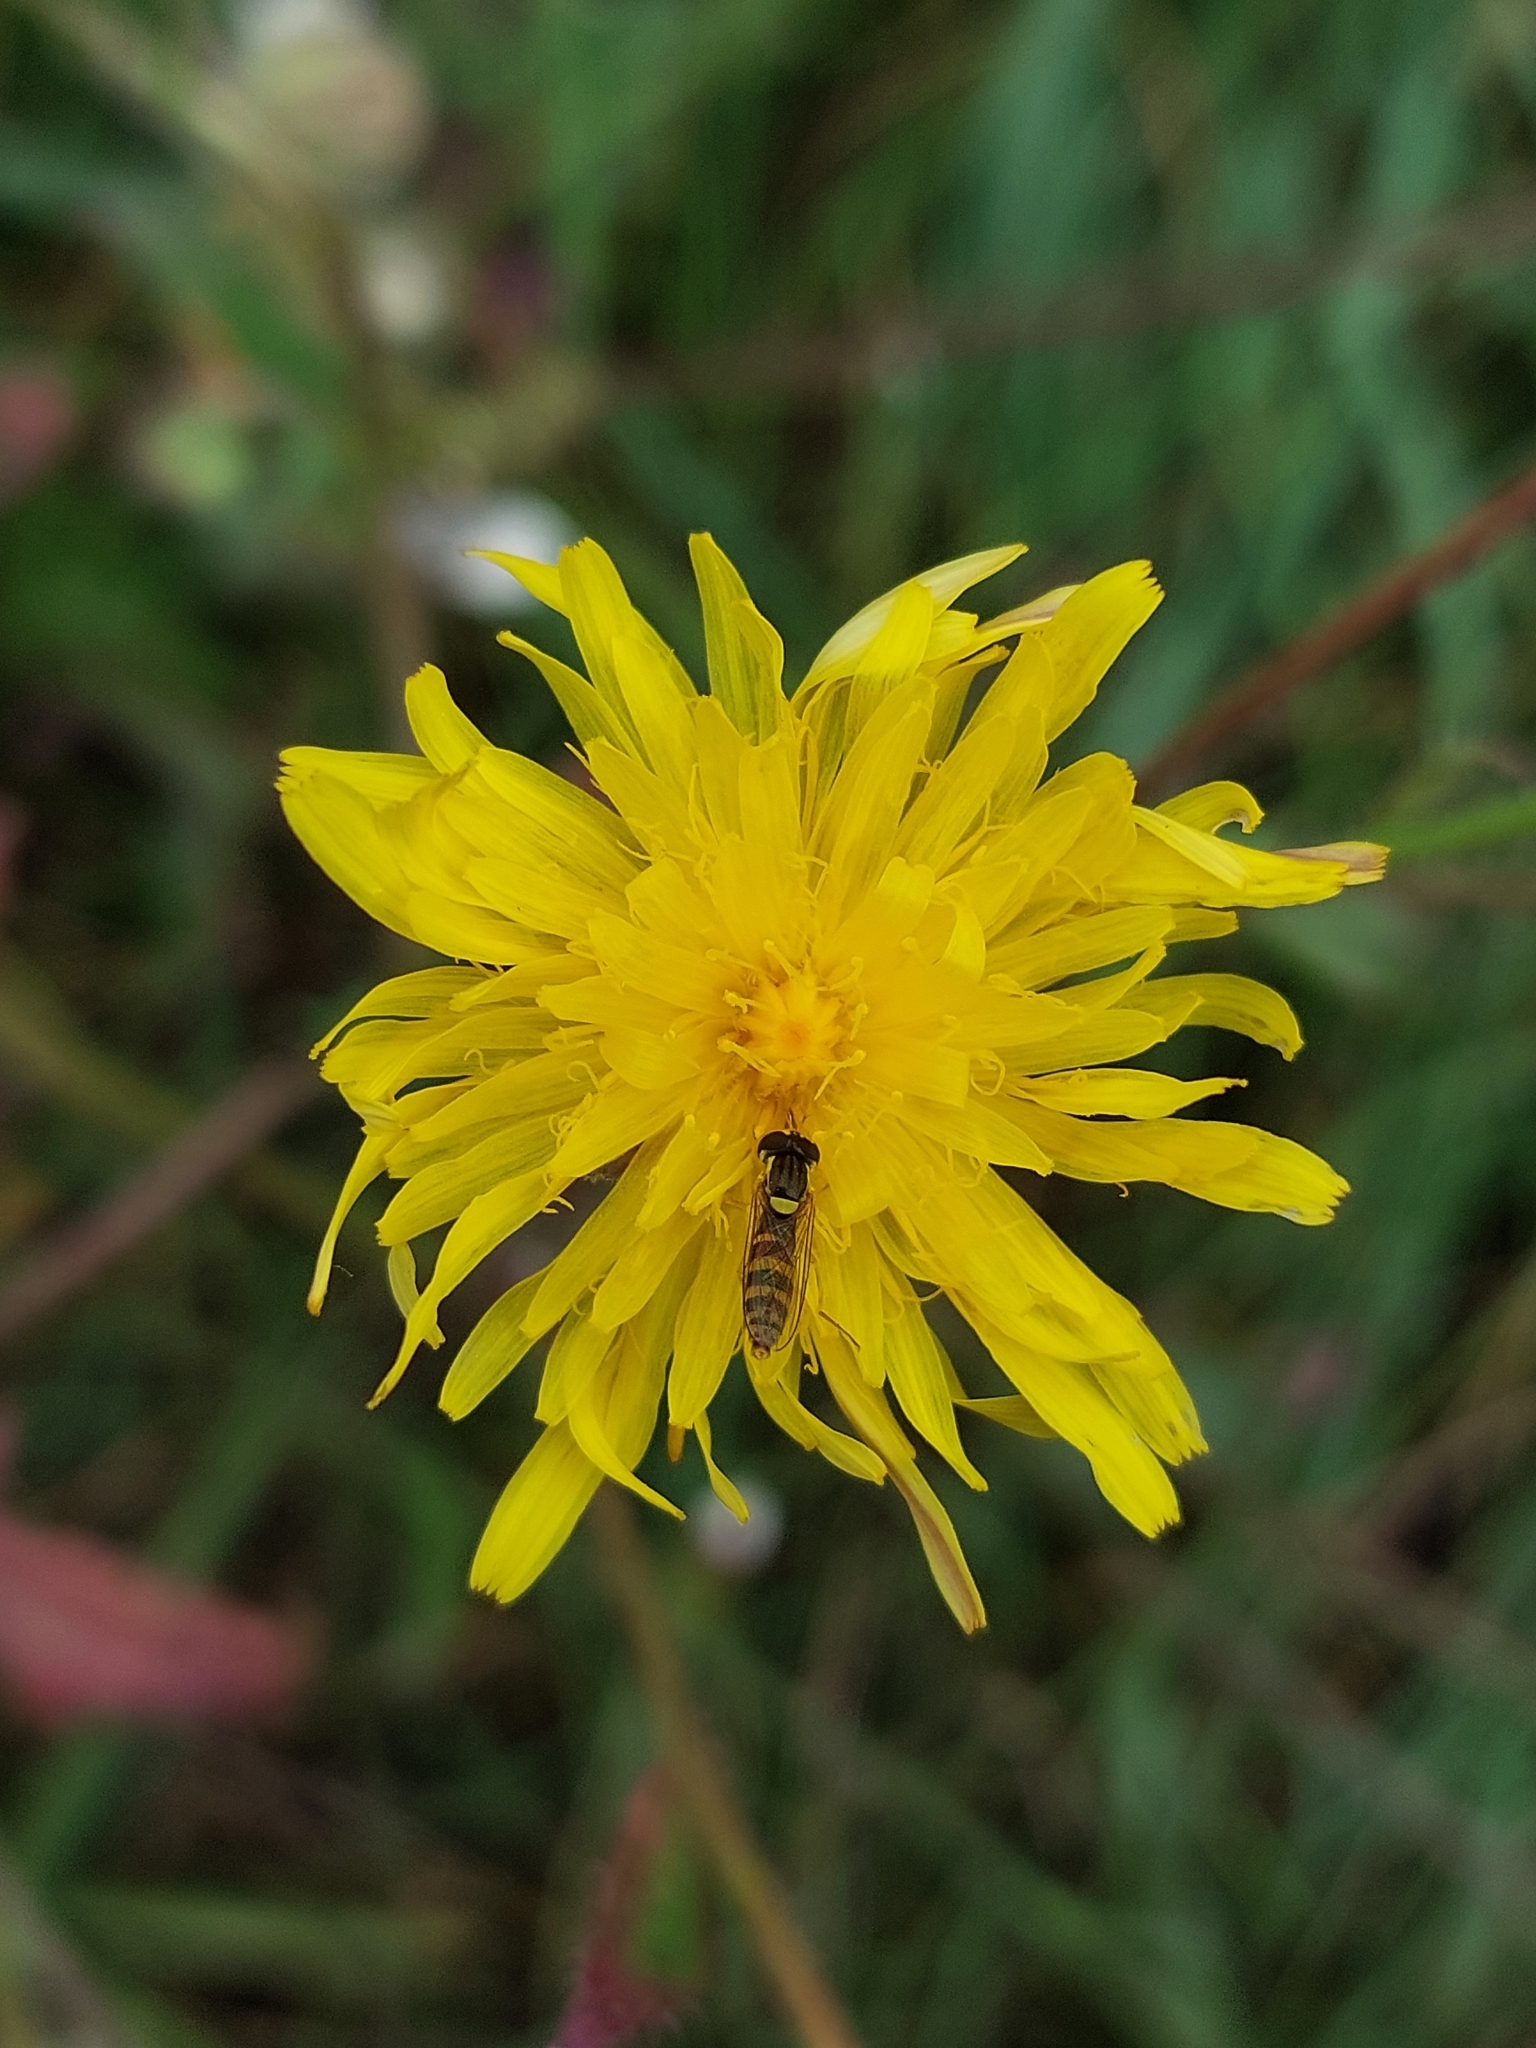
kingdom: Animalia
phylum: Arthropoda
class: Insecta
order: Diptera
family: Syrphidae
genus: Sphaerophoria
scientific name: Sphaerophoria
